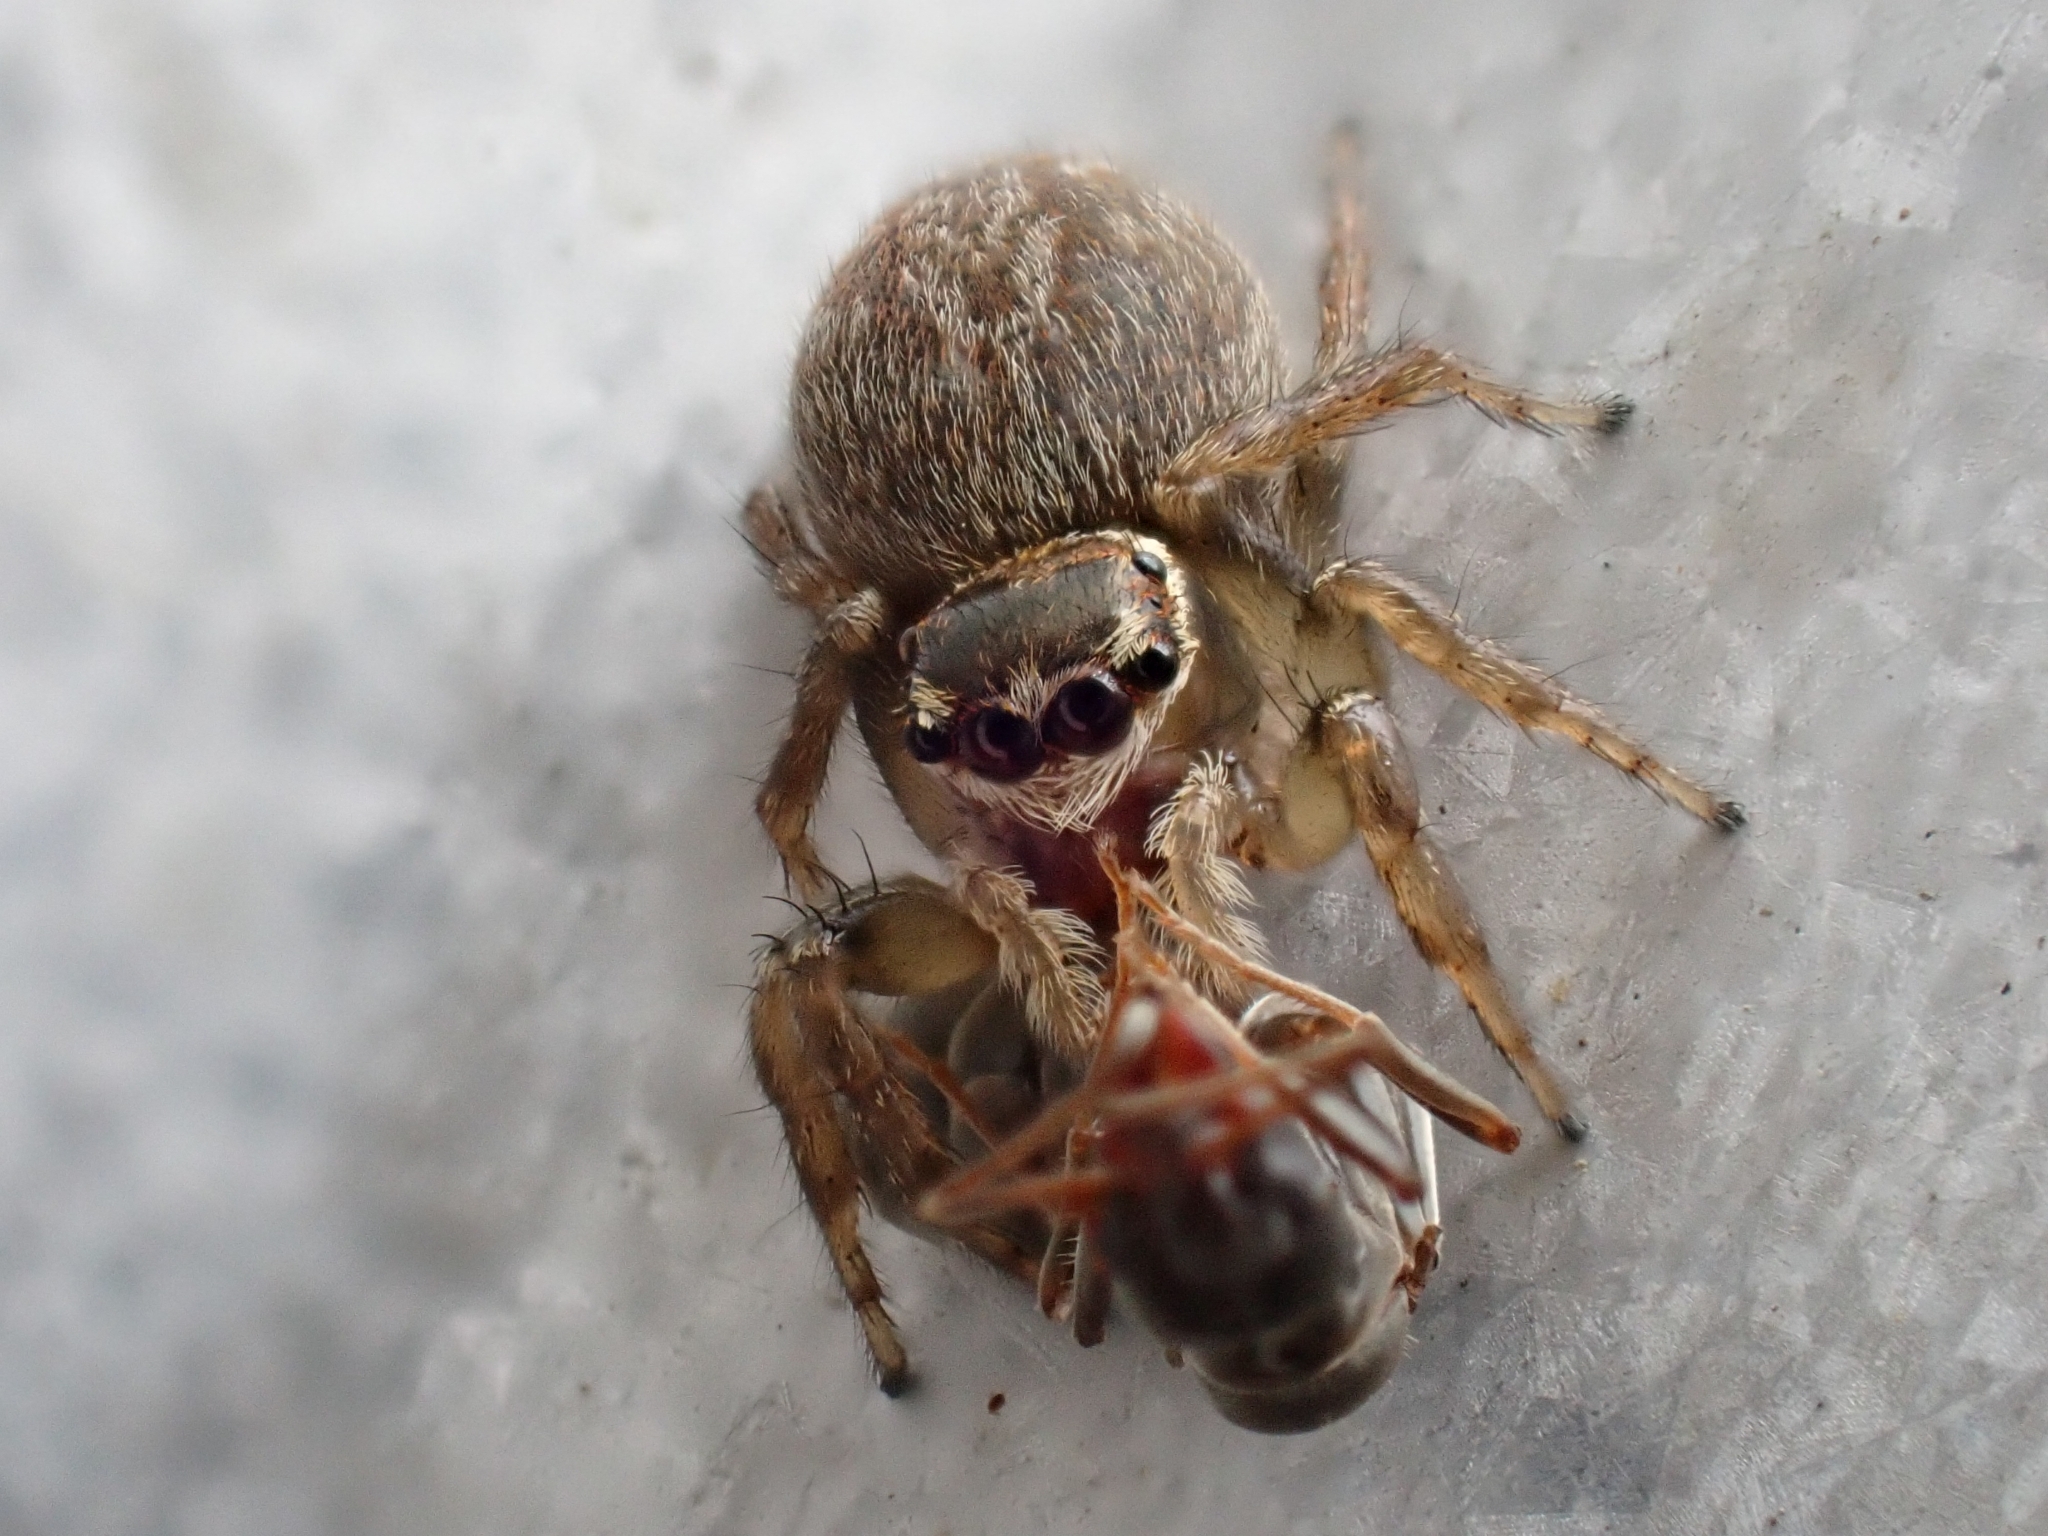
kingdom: Animalia
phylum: Arthropoda
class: Arachnida
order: Araneae
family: Salticidae
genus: Maratus
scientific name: Maratus griseus
